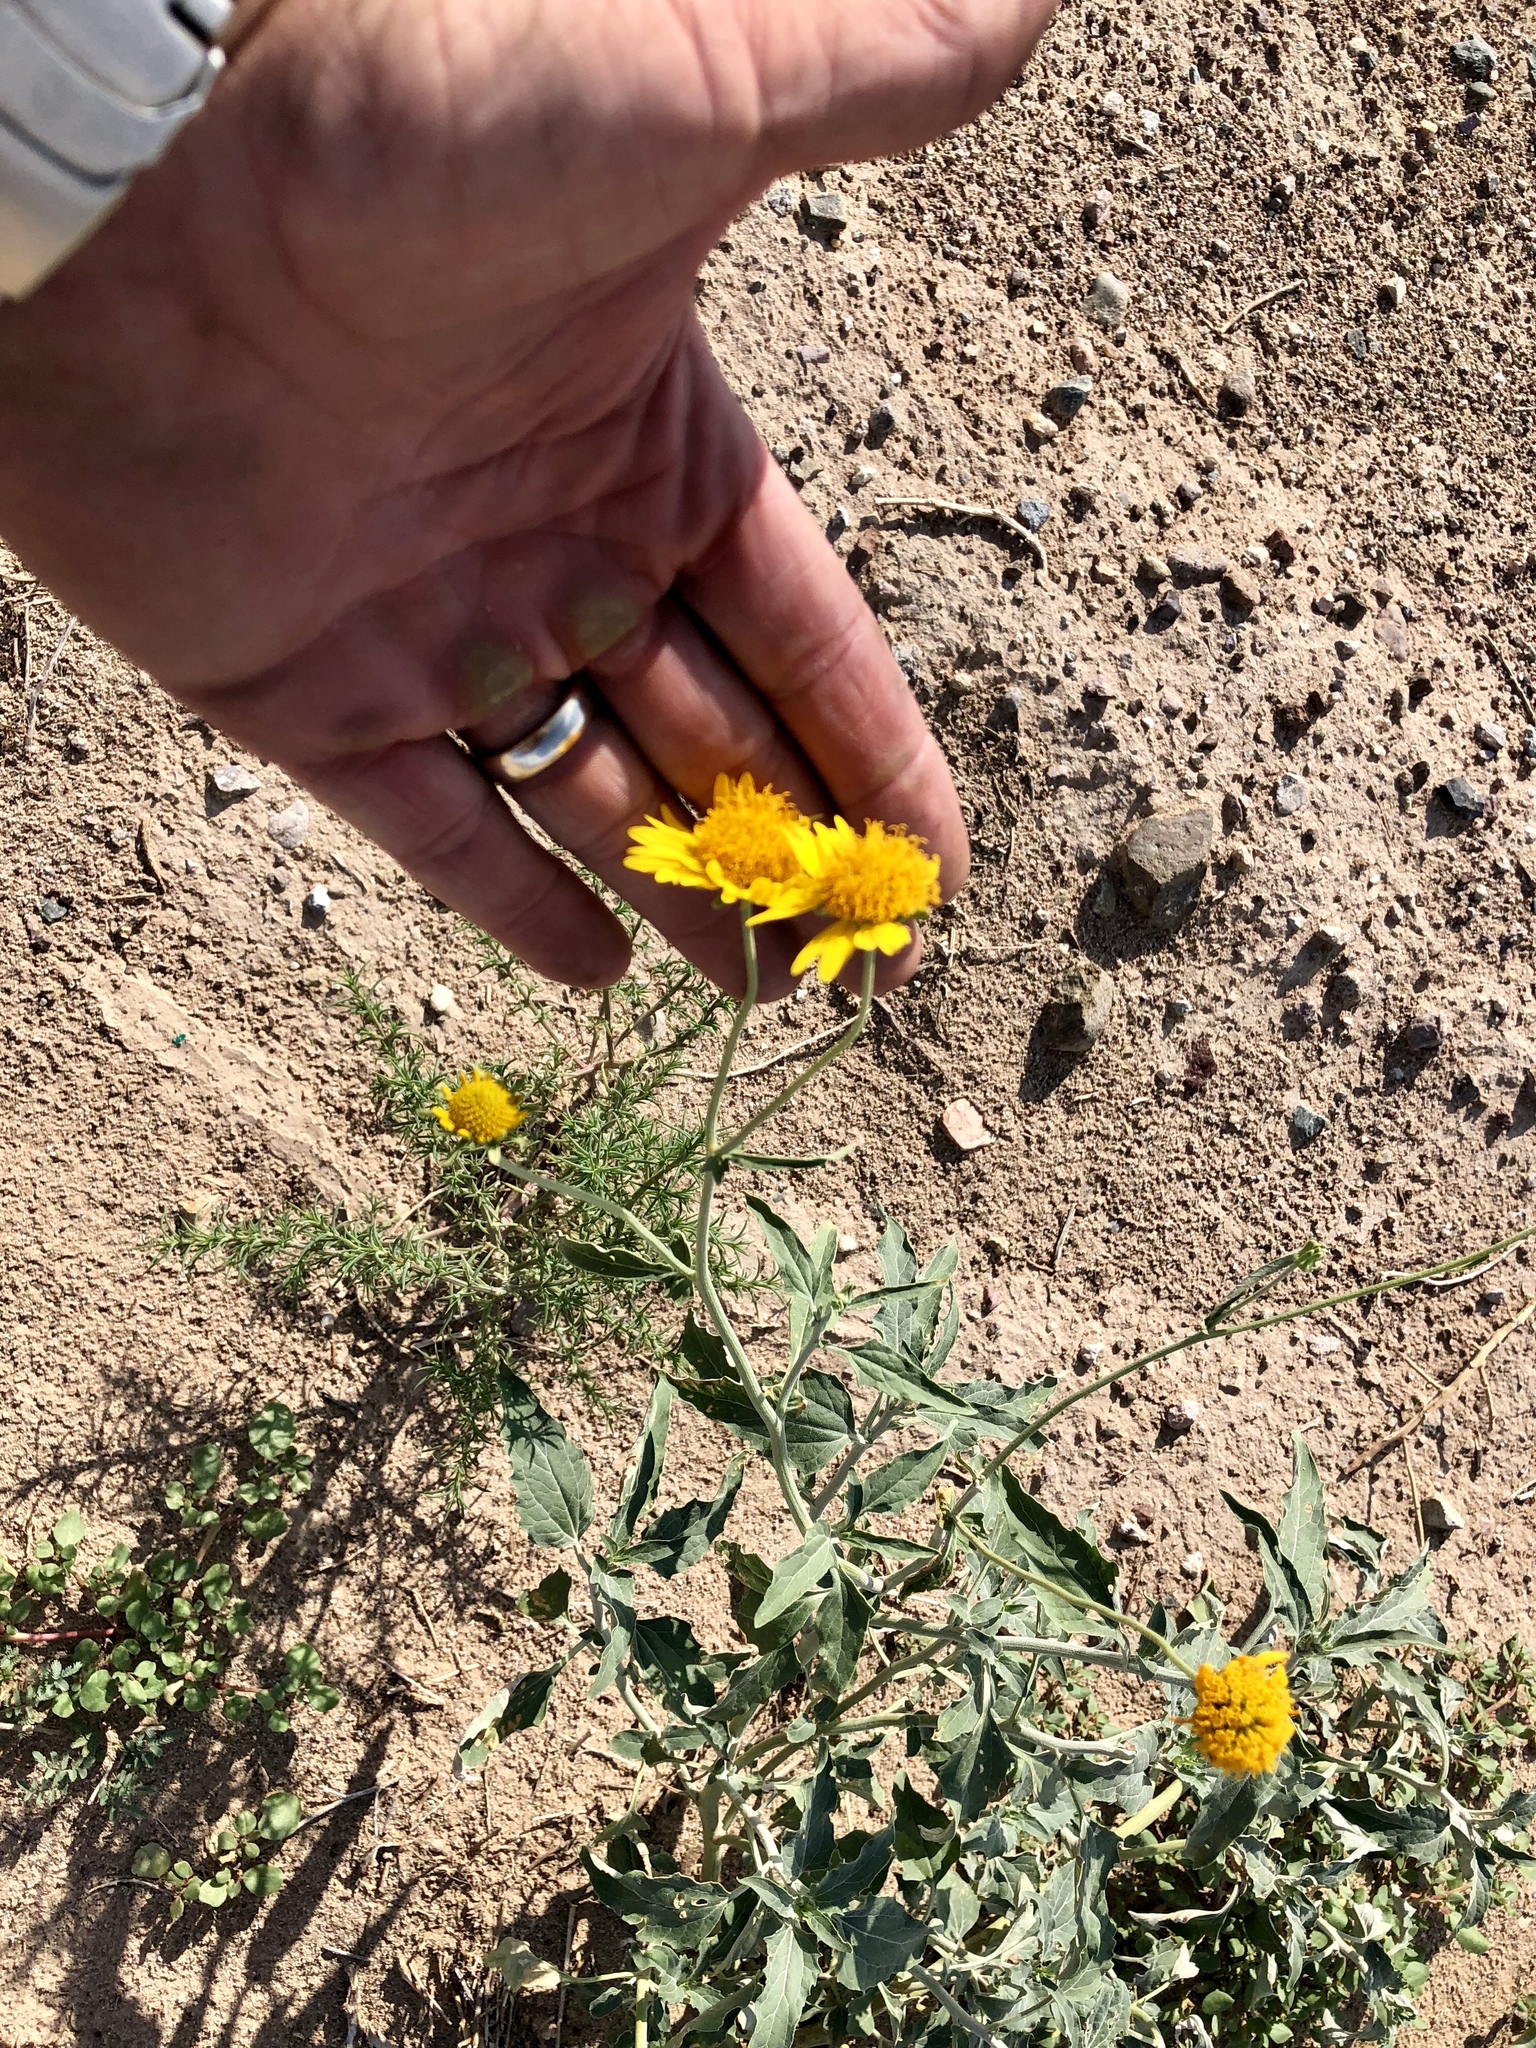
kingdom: Plantae
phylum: Tracheophyta
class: Magnoliopsida
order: Asterales
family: Asteraceae
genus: Verbesina
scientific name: Verbesina encelioides
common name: Golden crownbeard
